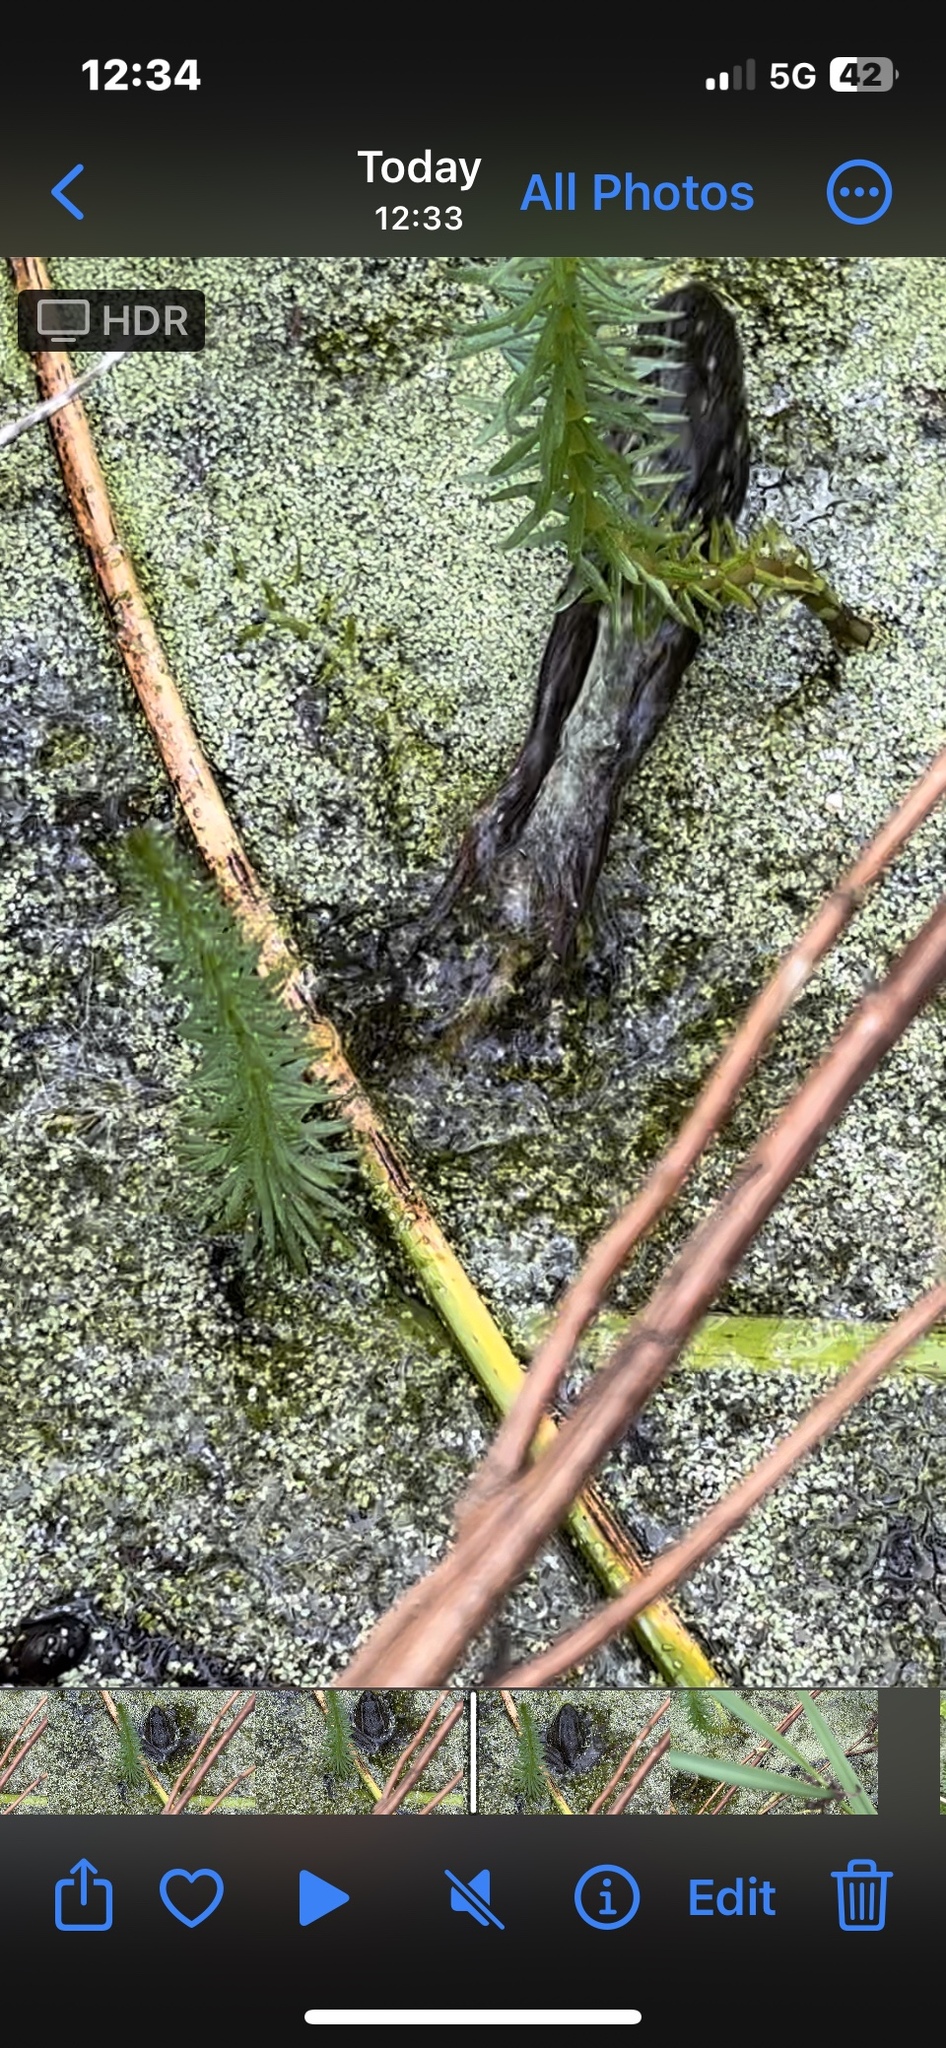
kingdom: Animalia
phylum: Chordata
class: Amphibia
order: Anura
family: Ranidae
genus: Rana
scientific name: Rana draytonii
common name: California red-legged frog
